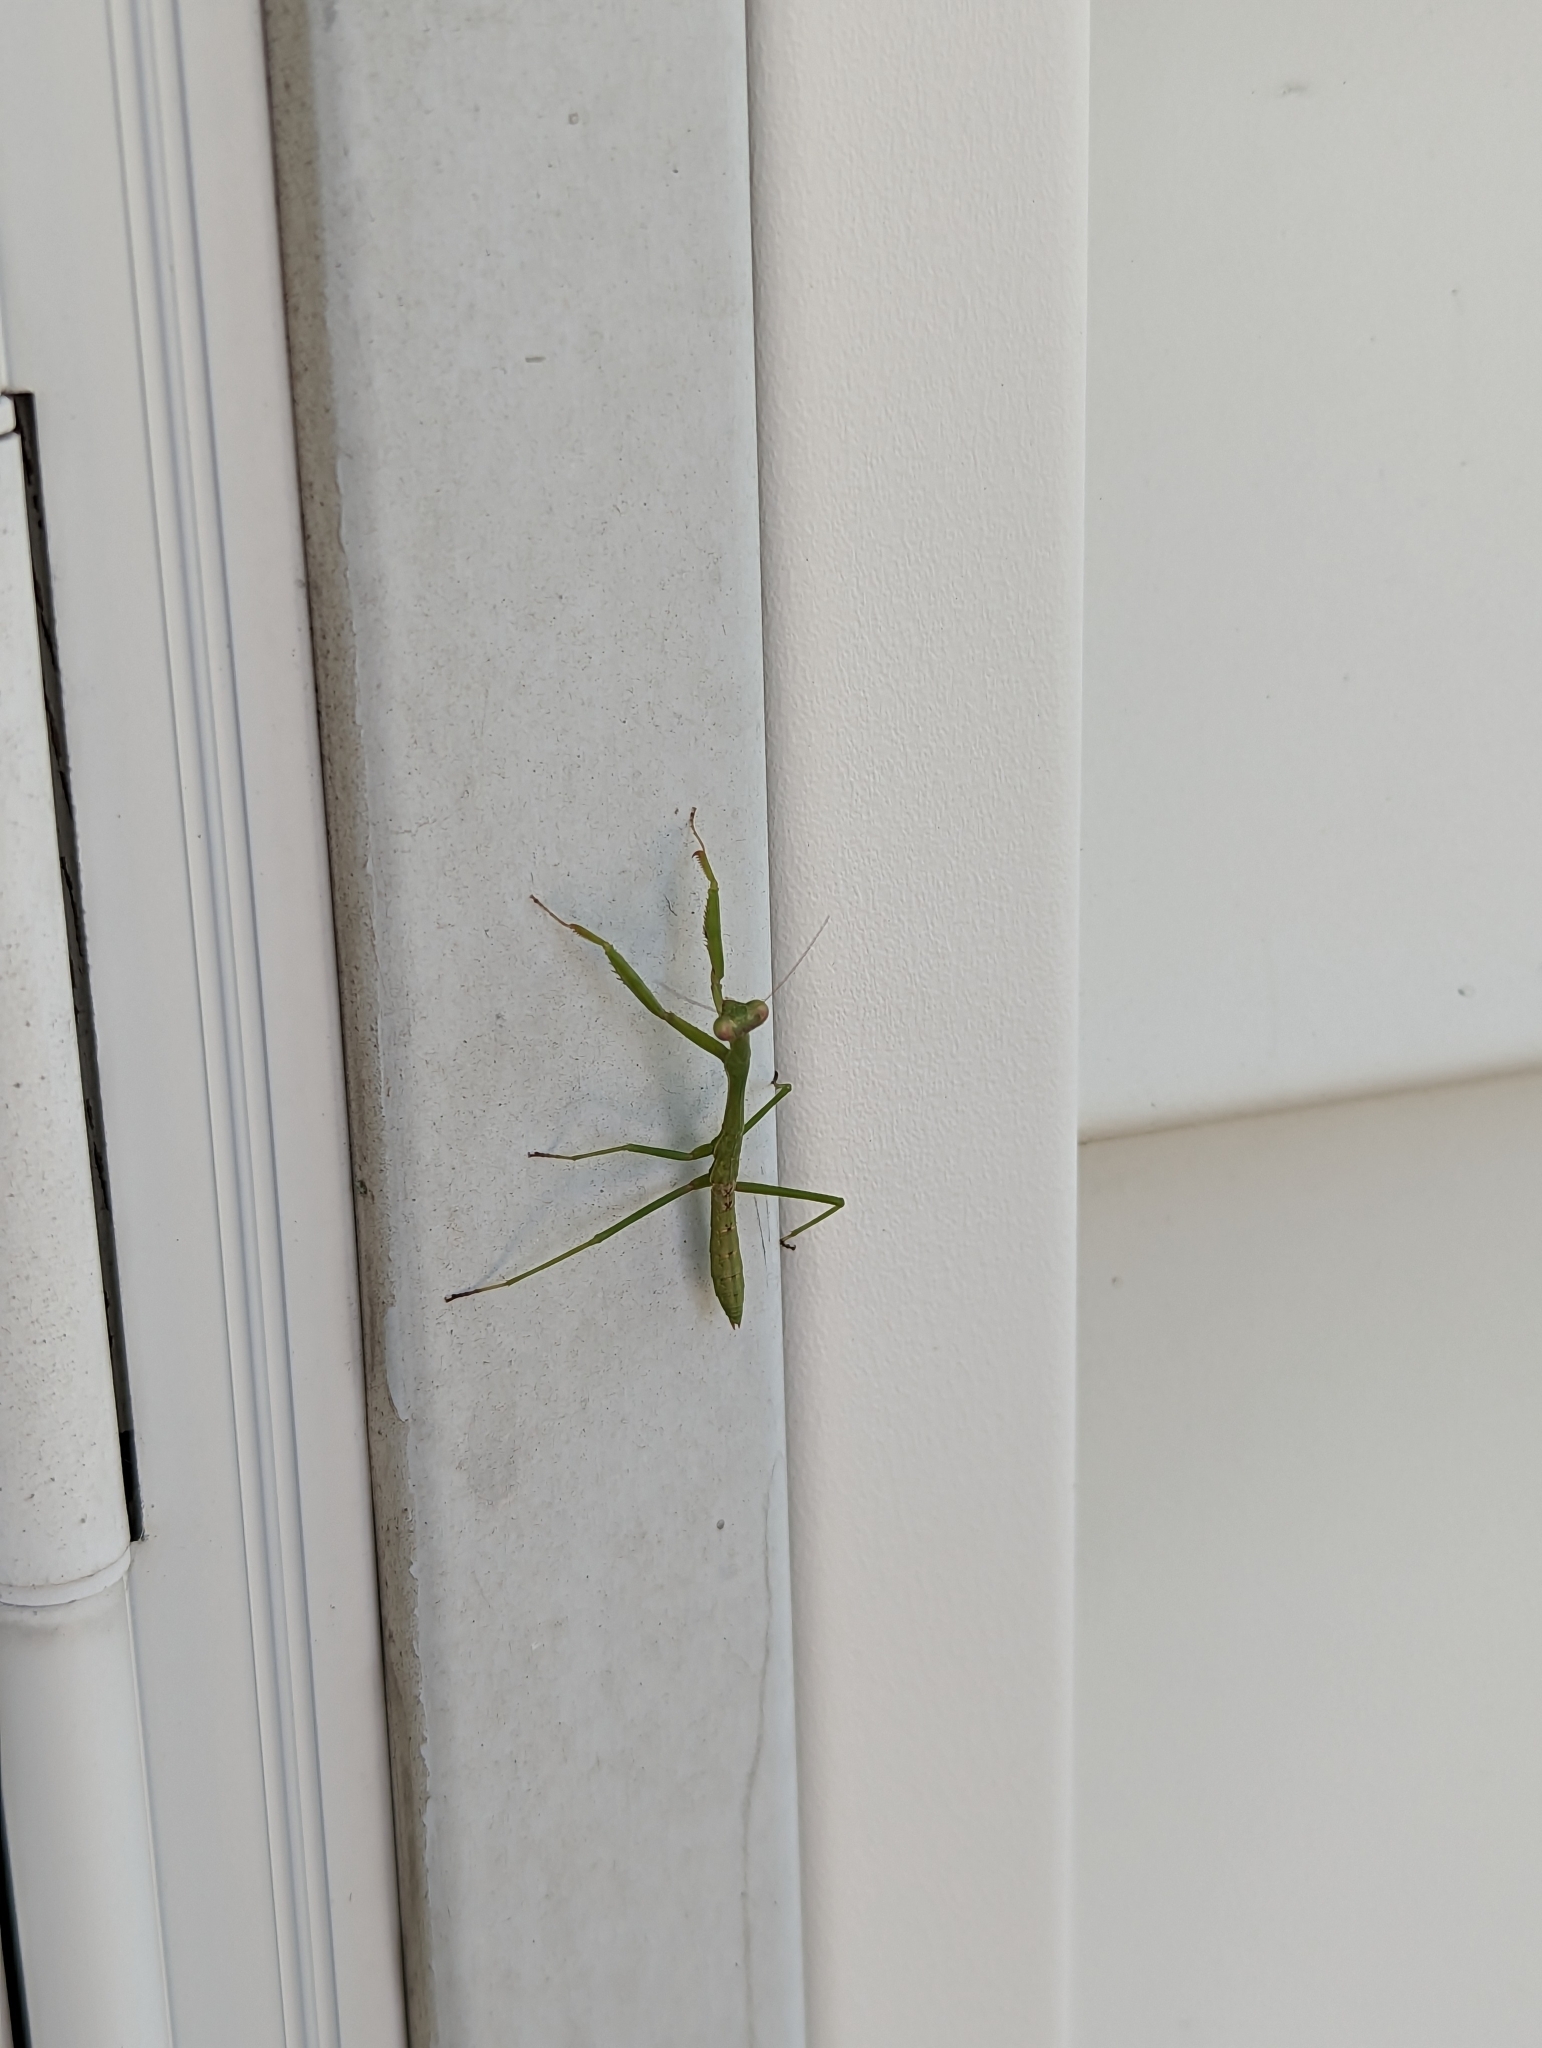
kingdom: Animalia
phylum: Arthropoda
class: Insecta
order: Mantodea
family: Mantidae
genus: Stagmomantis
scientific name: Stagmomantis carolina
